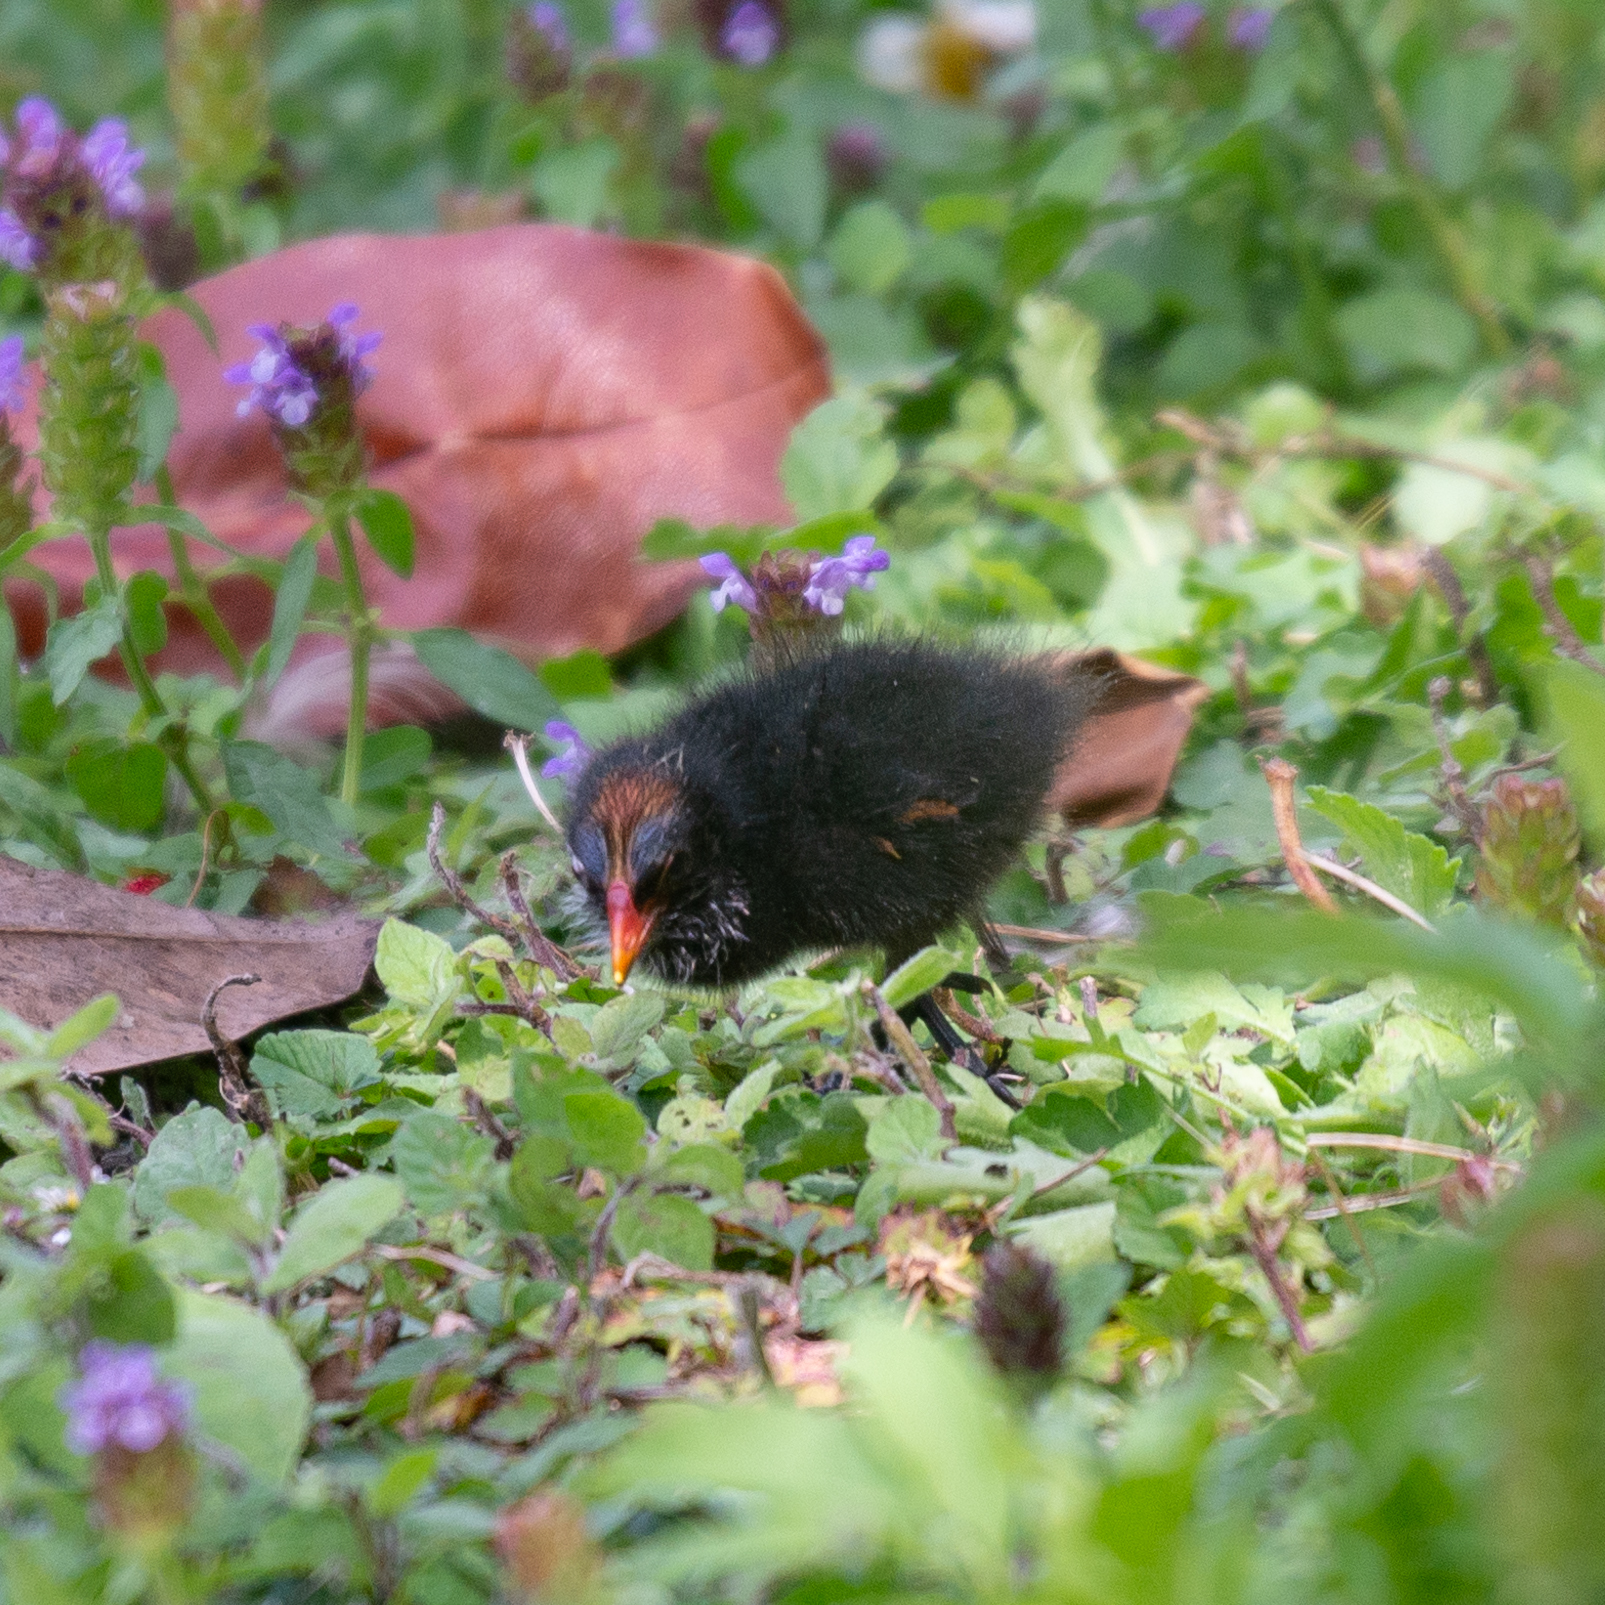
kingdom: Animalia
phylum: Chordata
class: Aves
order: Gruiformes
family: Rallidae
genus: Gallinula
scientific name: Gallinula chloropus
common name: Common moorhen
